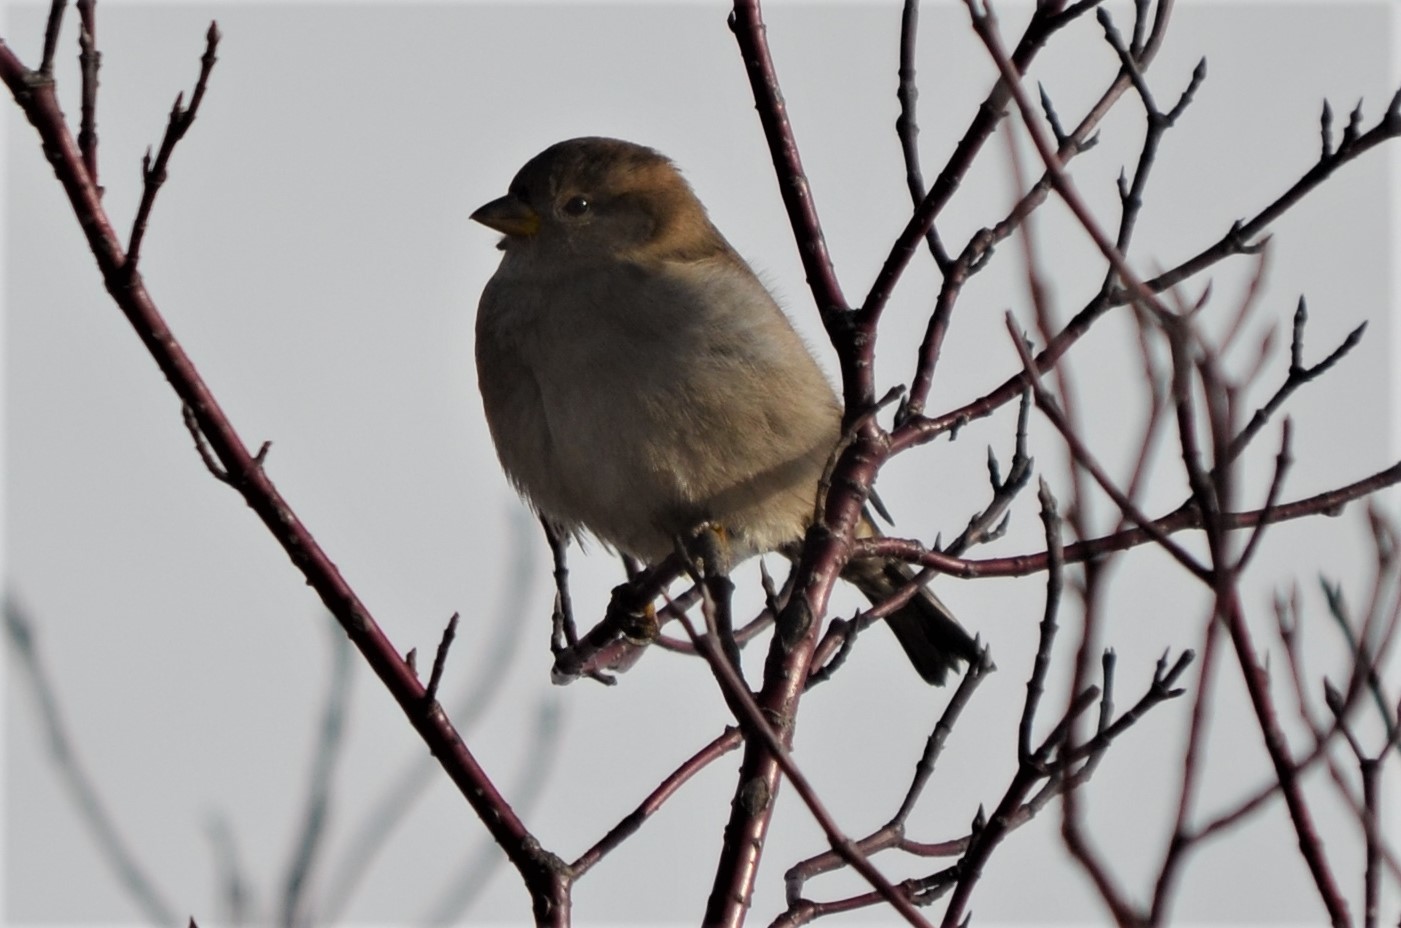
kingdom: Animalia
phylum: Chordata
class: Aves
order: Passeriformes
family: Passeridae
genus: Passer
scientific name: Passer domesticus
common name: House sparrow
